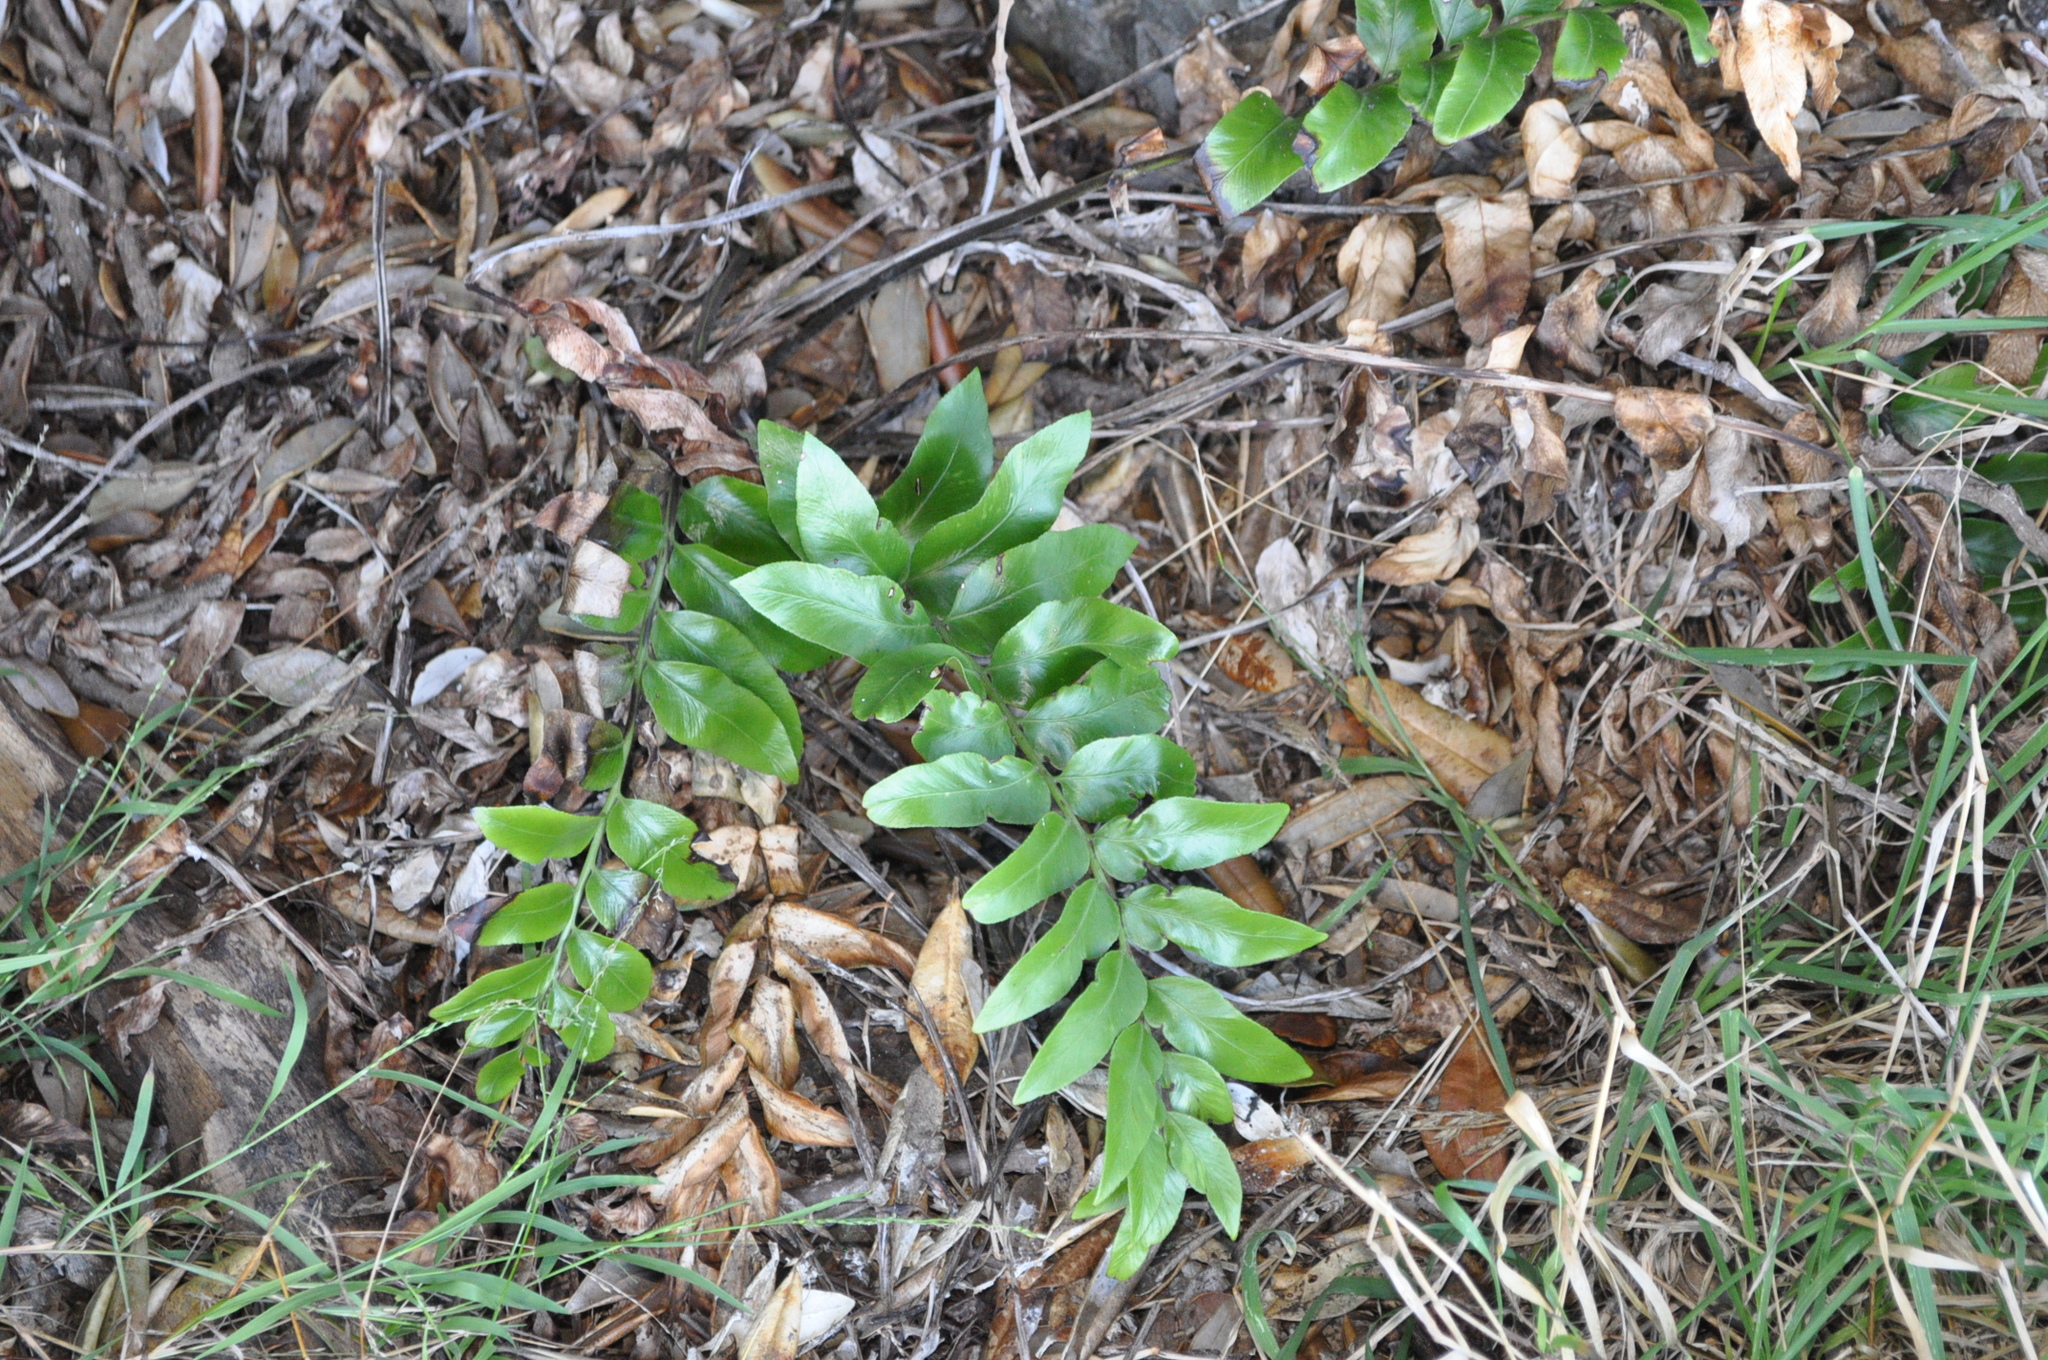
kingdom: Plantae
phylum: Tracheophyta
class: Polypodiopsida
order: Polypodiales
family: Aspleniaceae
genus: Asplenium
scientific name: Asplenium oblongifolium
